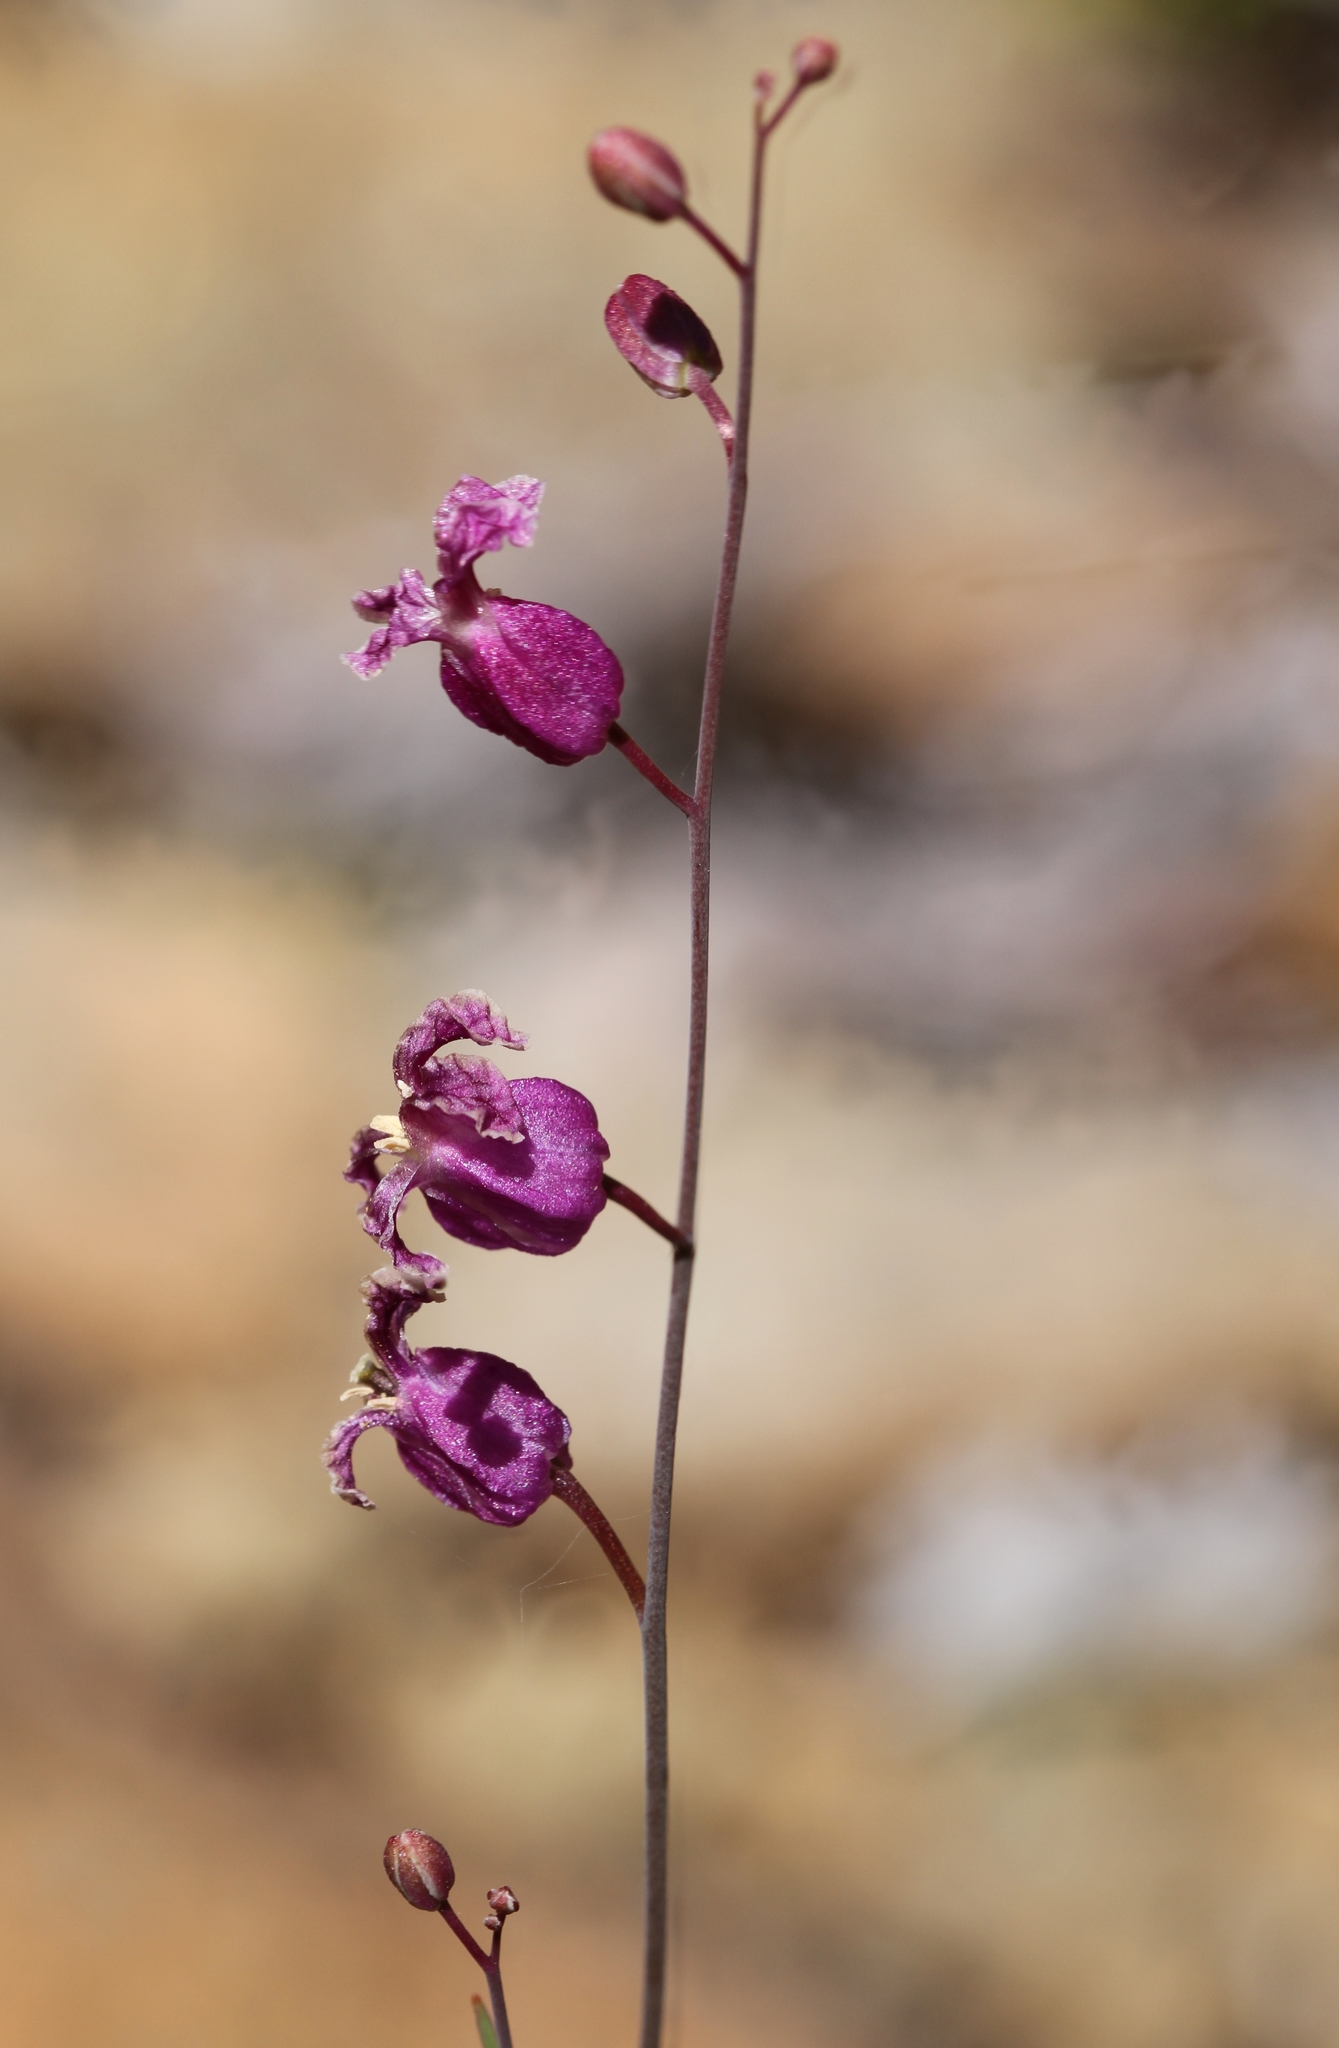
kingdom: Plantae
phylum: Tracheophyta
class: Magnoliopsida
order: Brassicales
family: Brassicaceae
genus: Streptanthus
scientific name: Streptanthus glandulosus
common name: Jewel-flower
